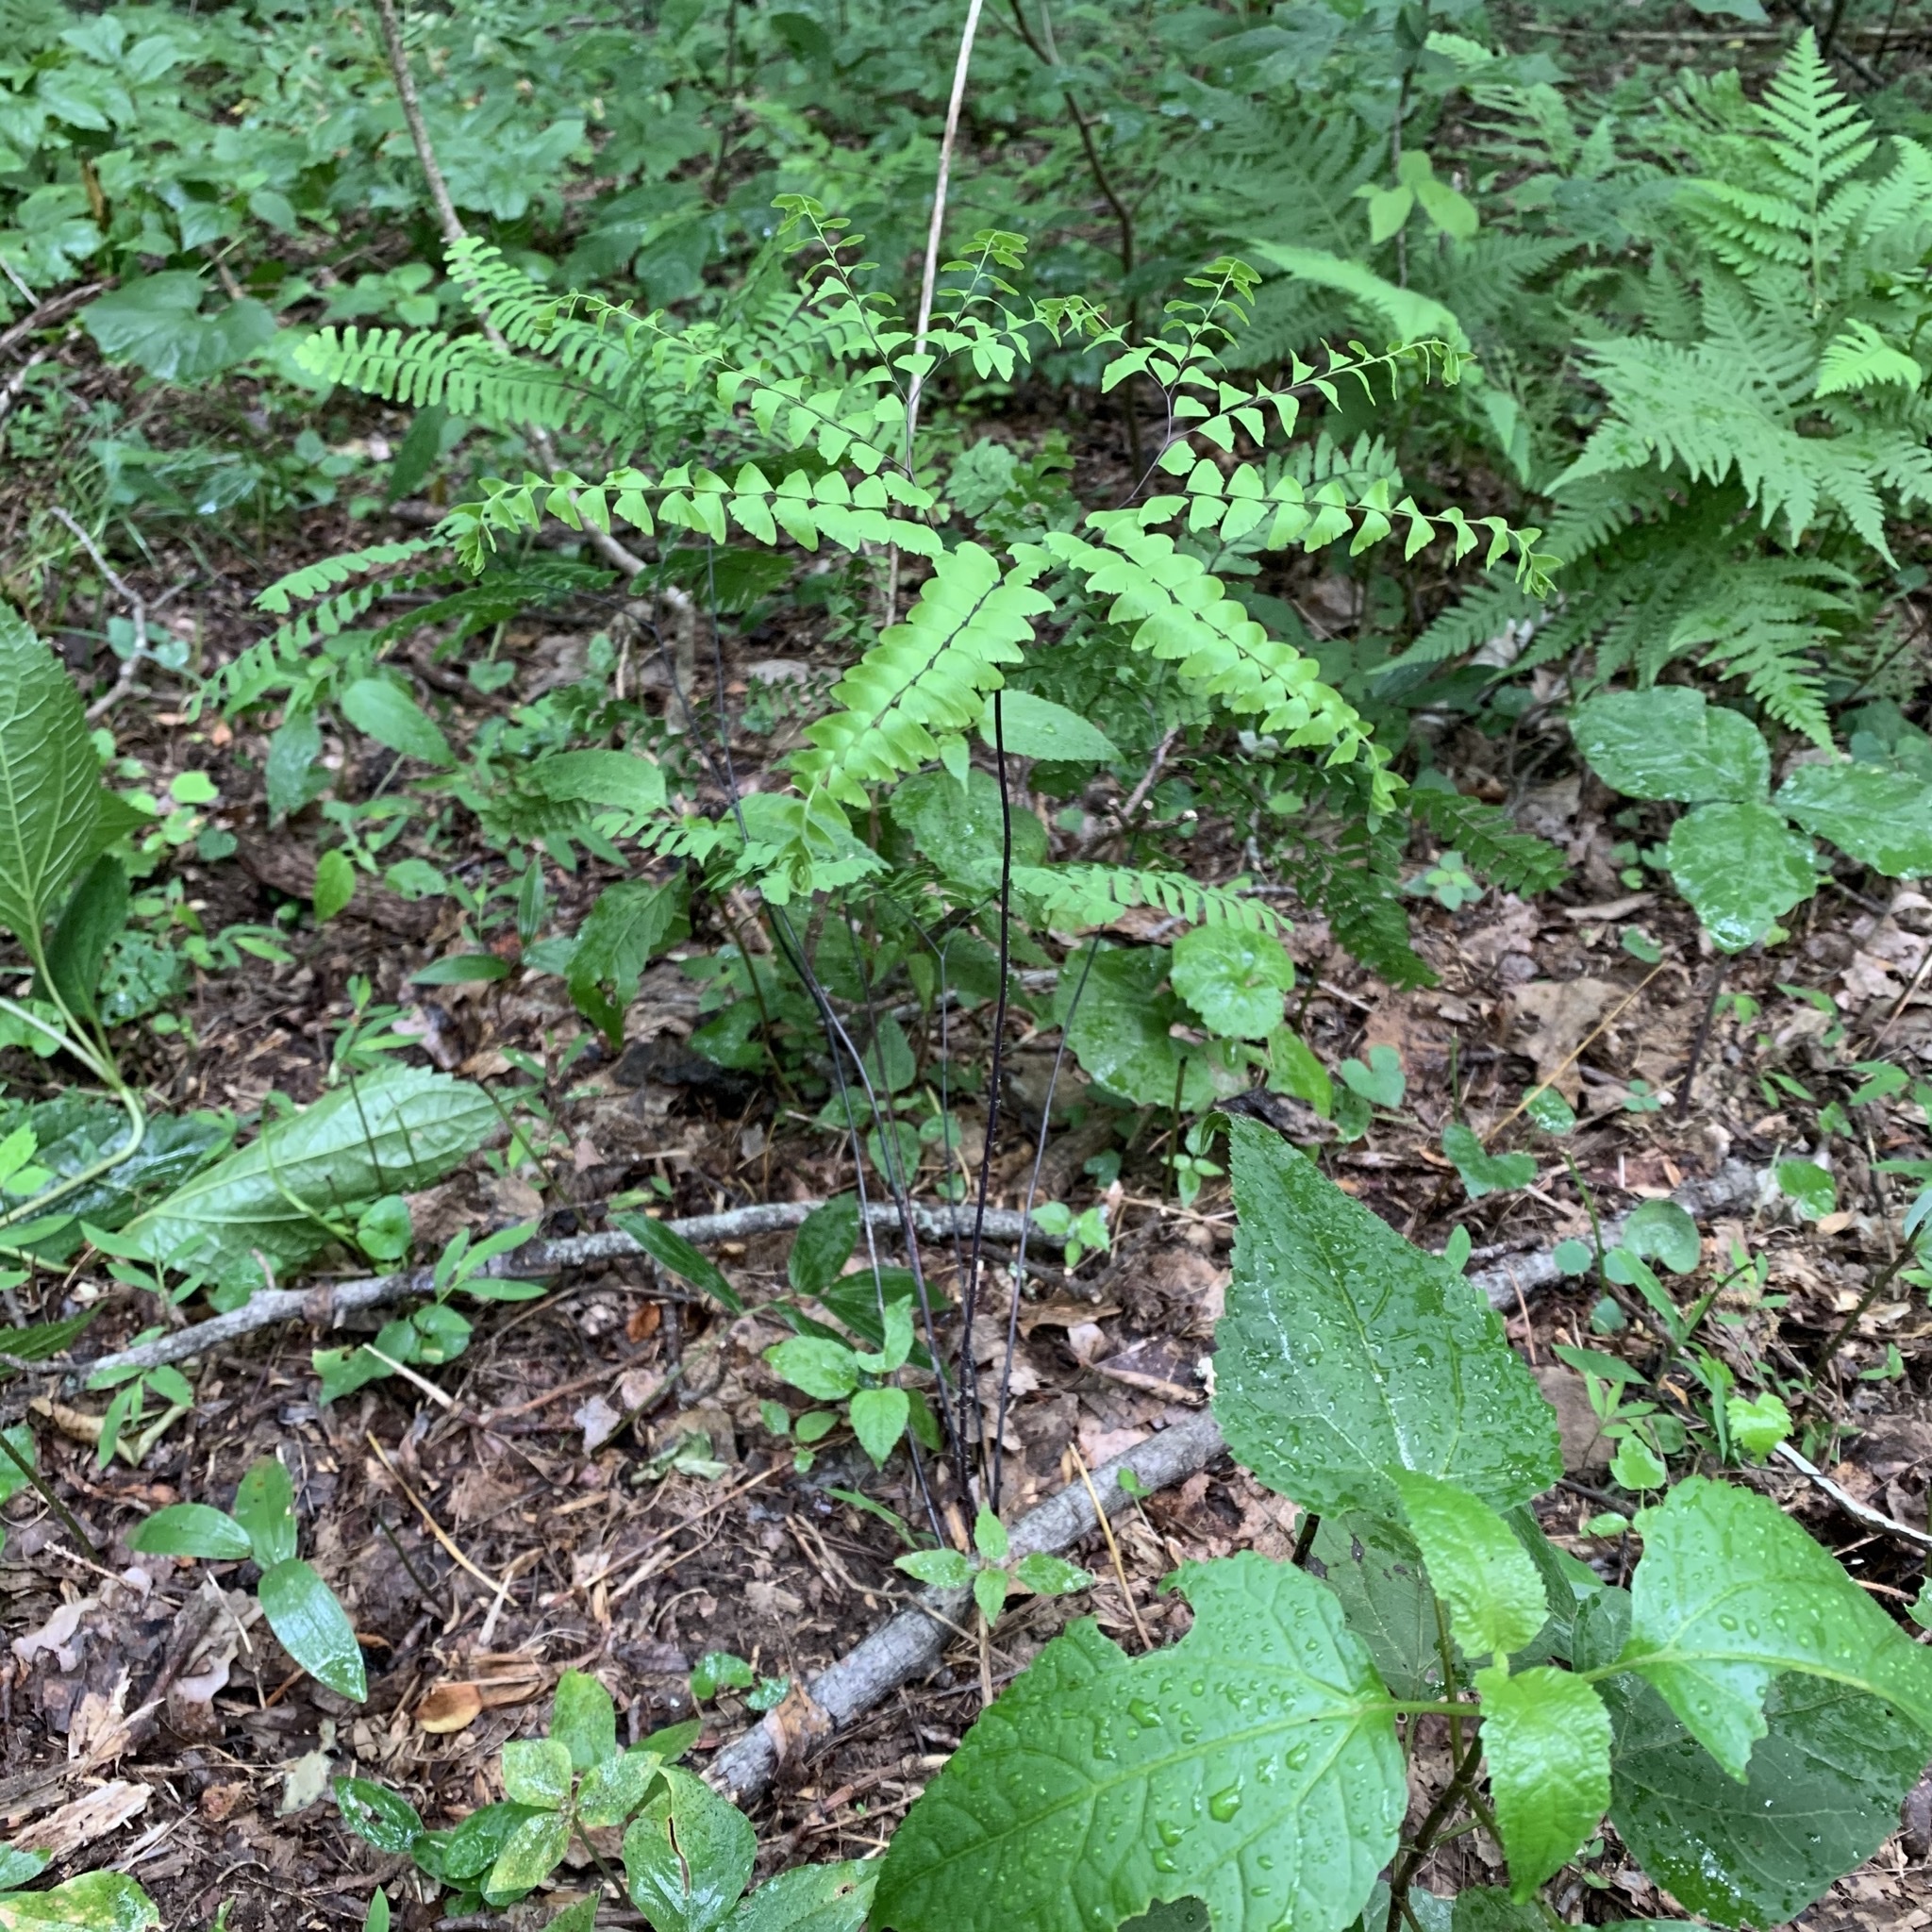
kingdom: Plantae
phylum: Tracheophyta
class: Polypodiopsida
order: Polypodiales
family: Pteridaceae
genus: Adiantum
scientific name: Adiantum pedatum
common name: Five-finger fern
